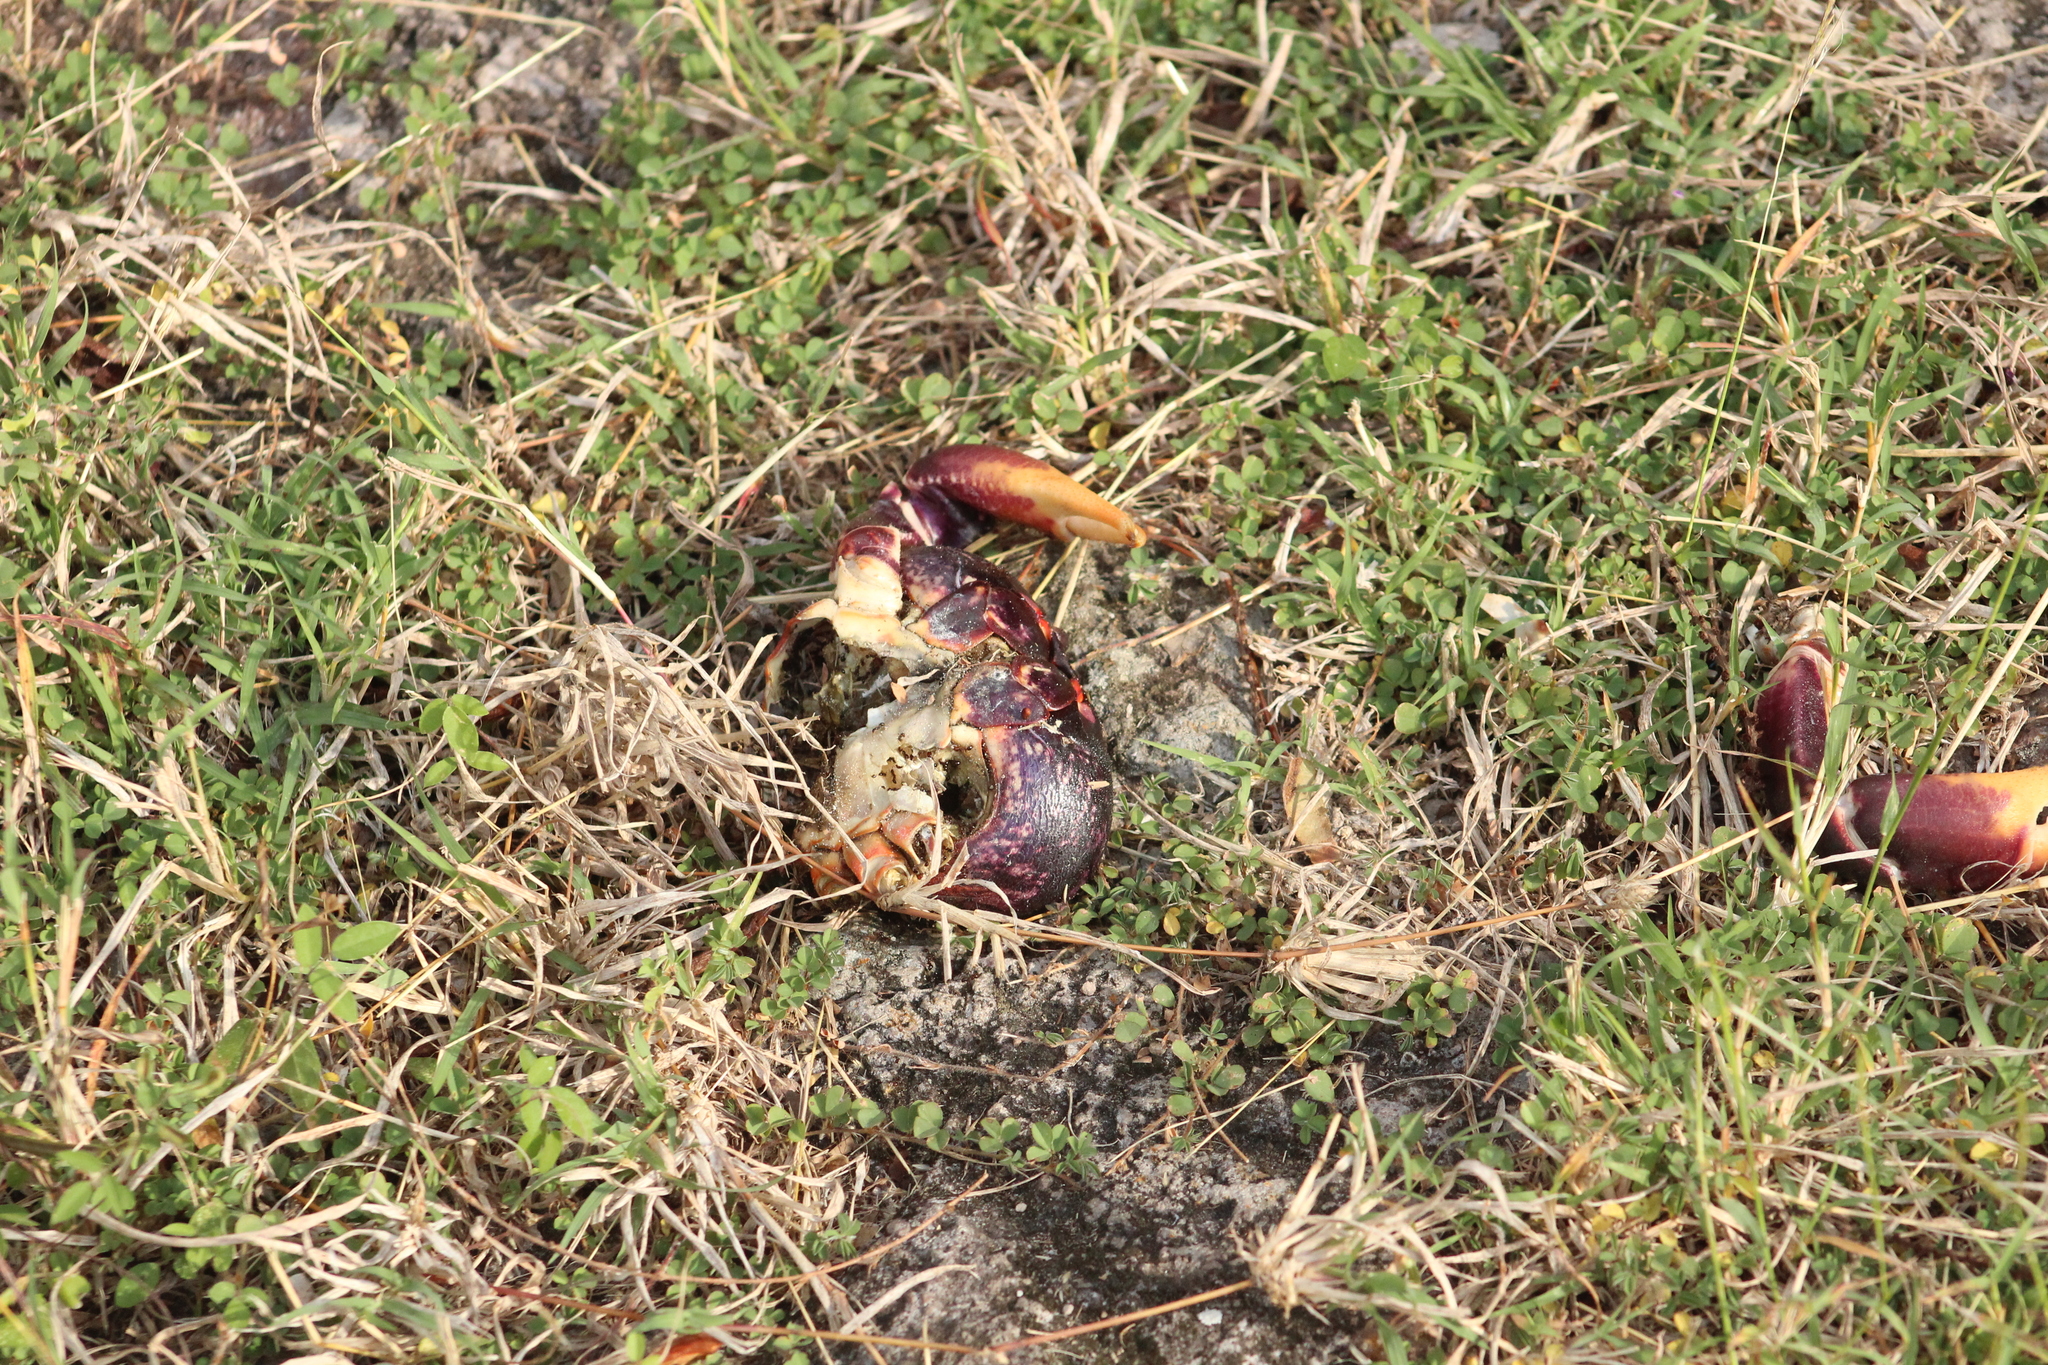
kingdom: Animalia
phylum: Arthropoda
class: Malacostraca
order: Decapoda
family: Gecarcinidae
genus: Gecarcinus
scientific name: Gecarcinus ruricola
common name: Black land crab
